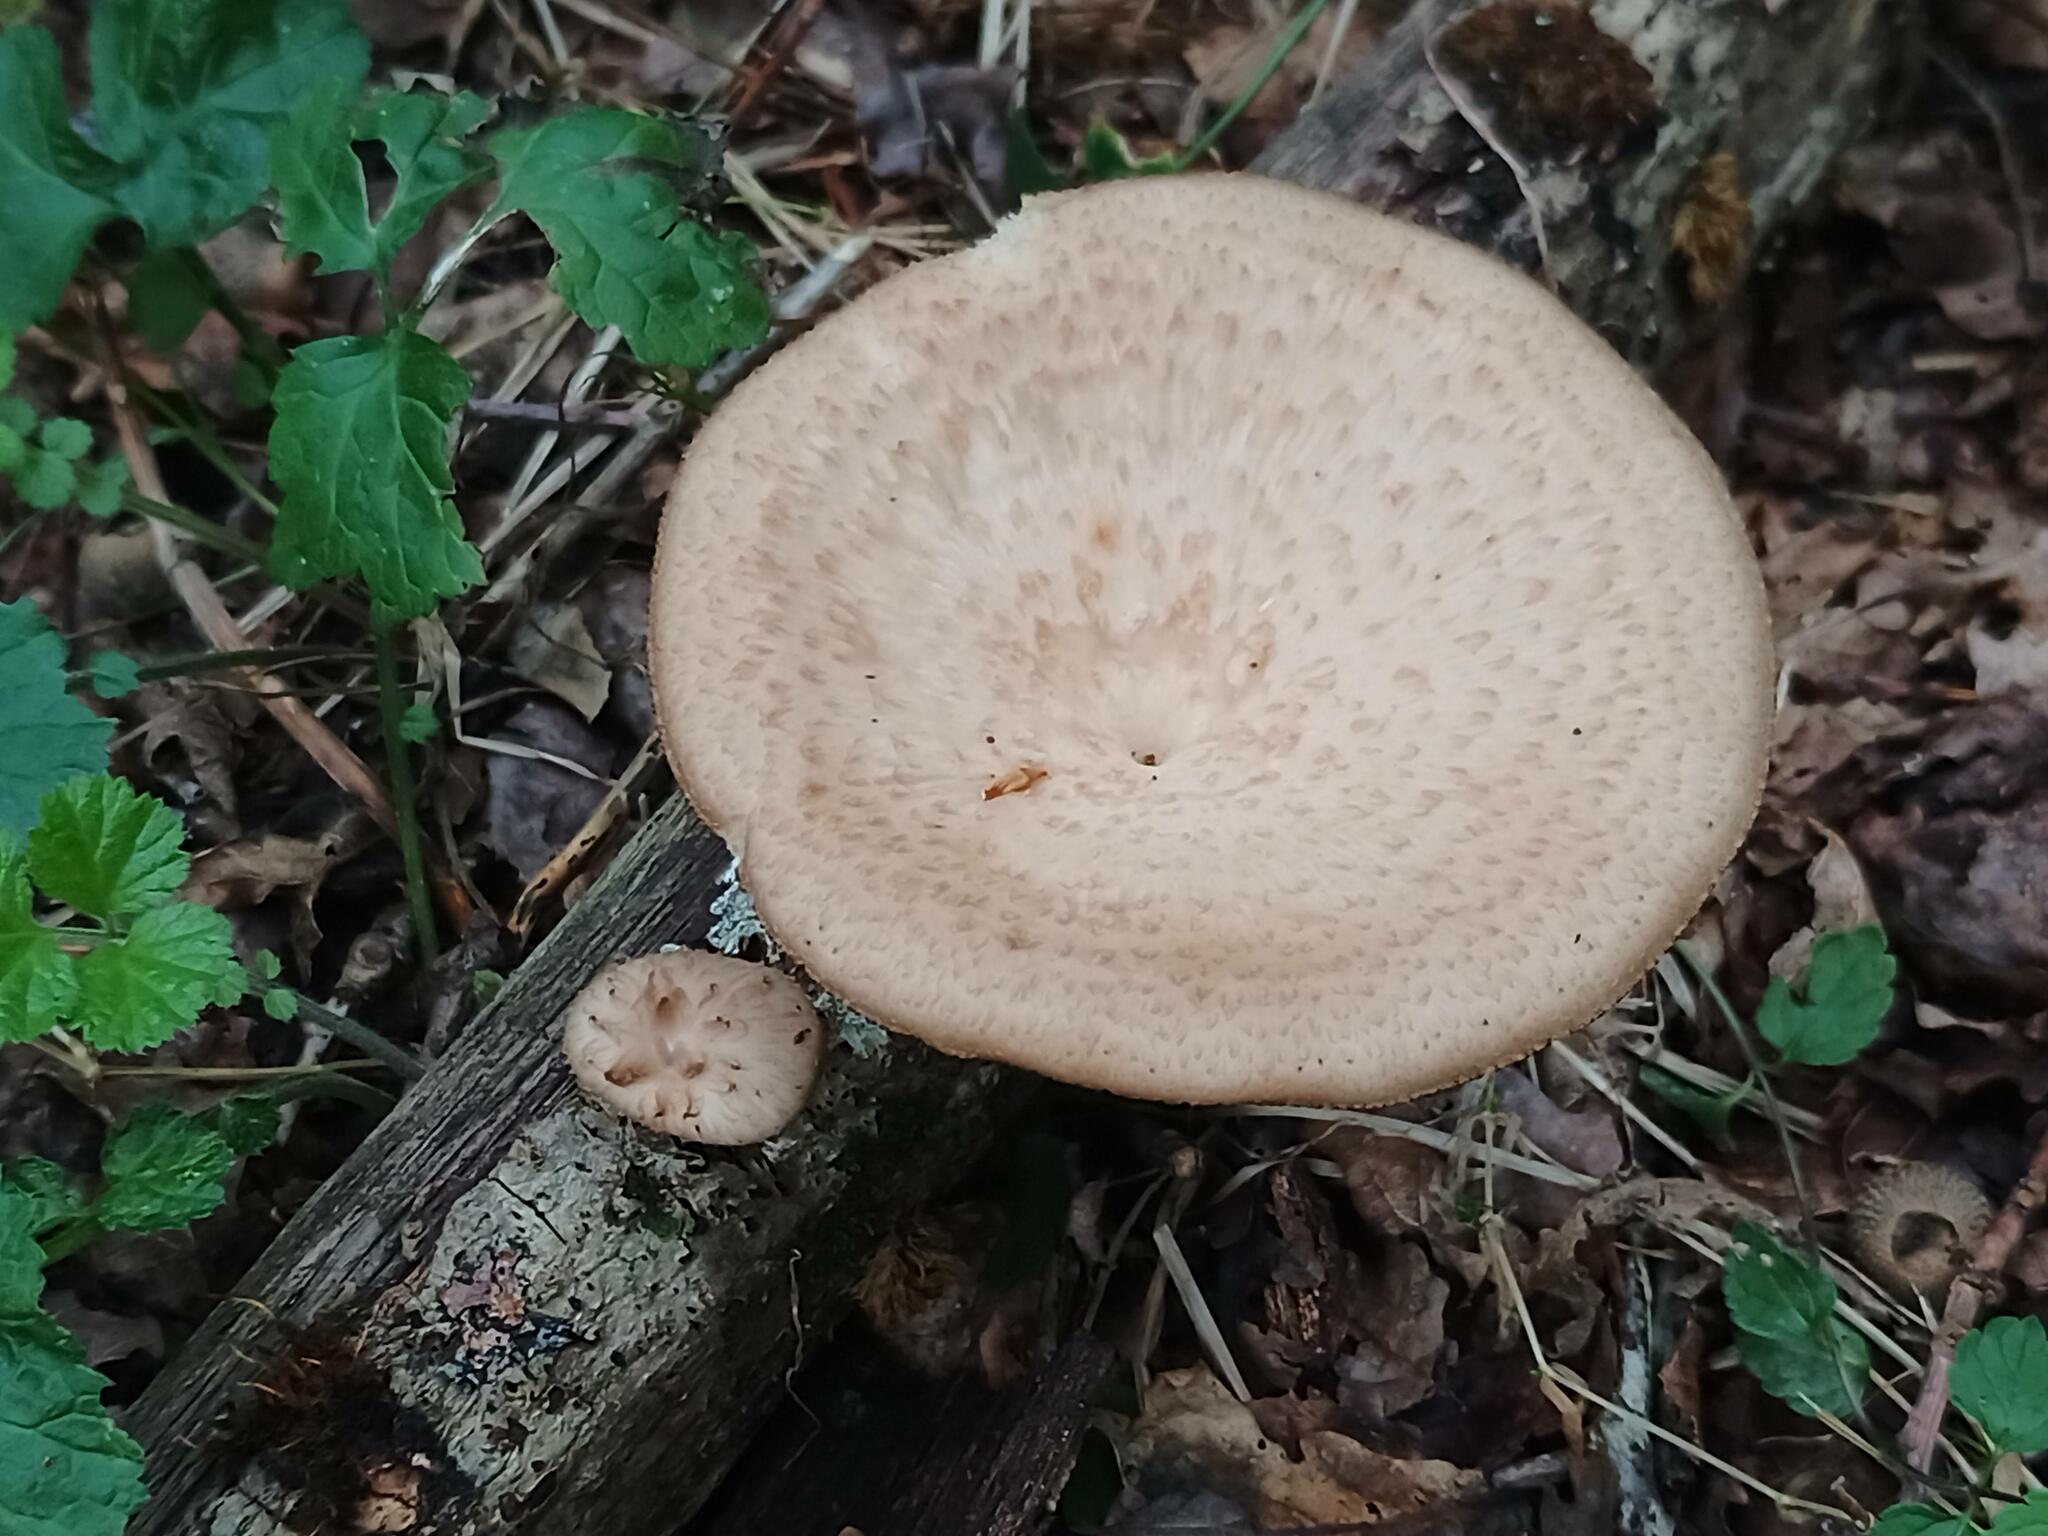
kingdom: Fungi
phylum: Basidiomycota
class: Agaricomycetes
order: Polyporales
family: Polyporaceae
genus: Polyporus
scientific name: Polyporus tuberaster
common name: Tuberous polypore
